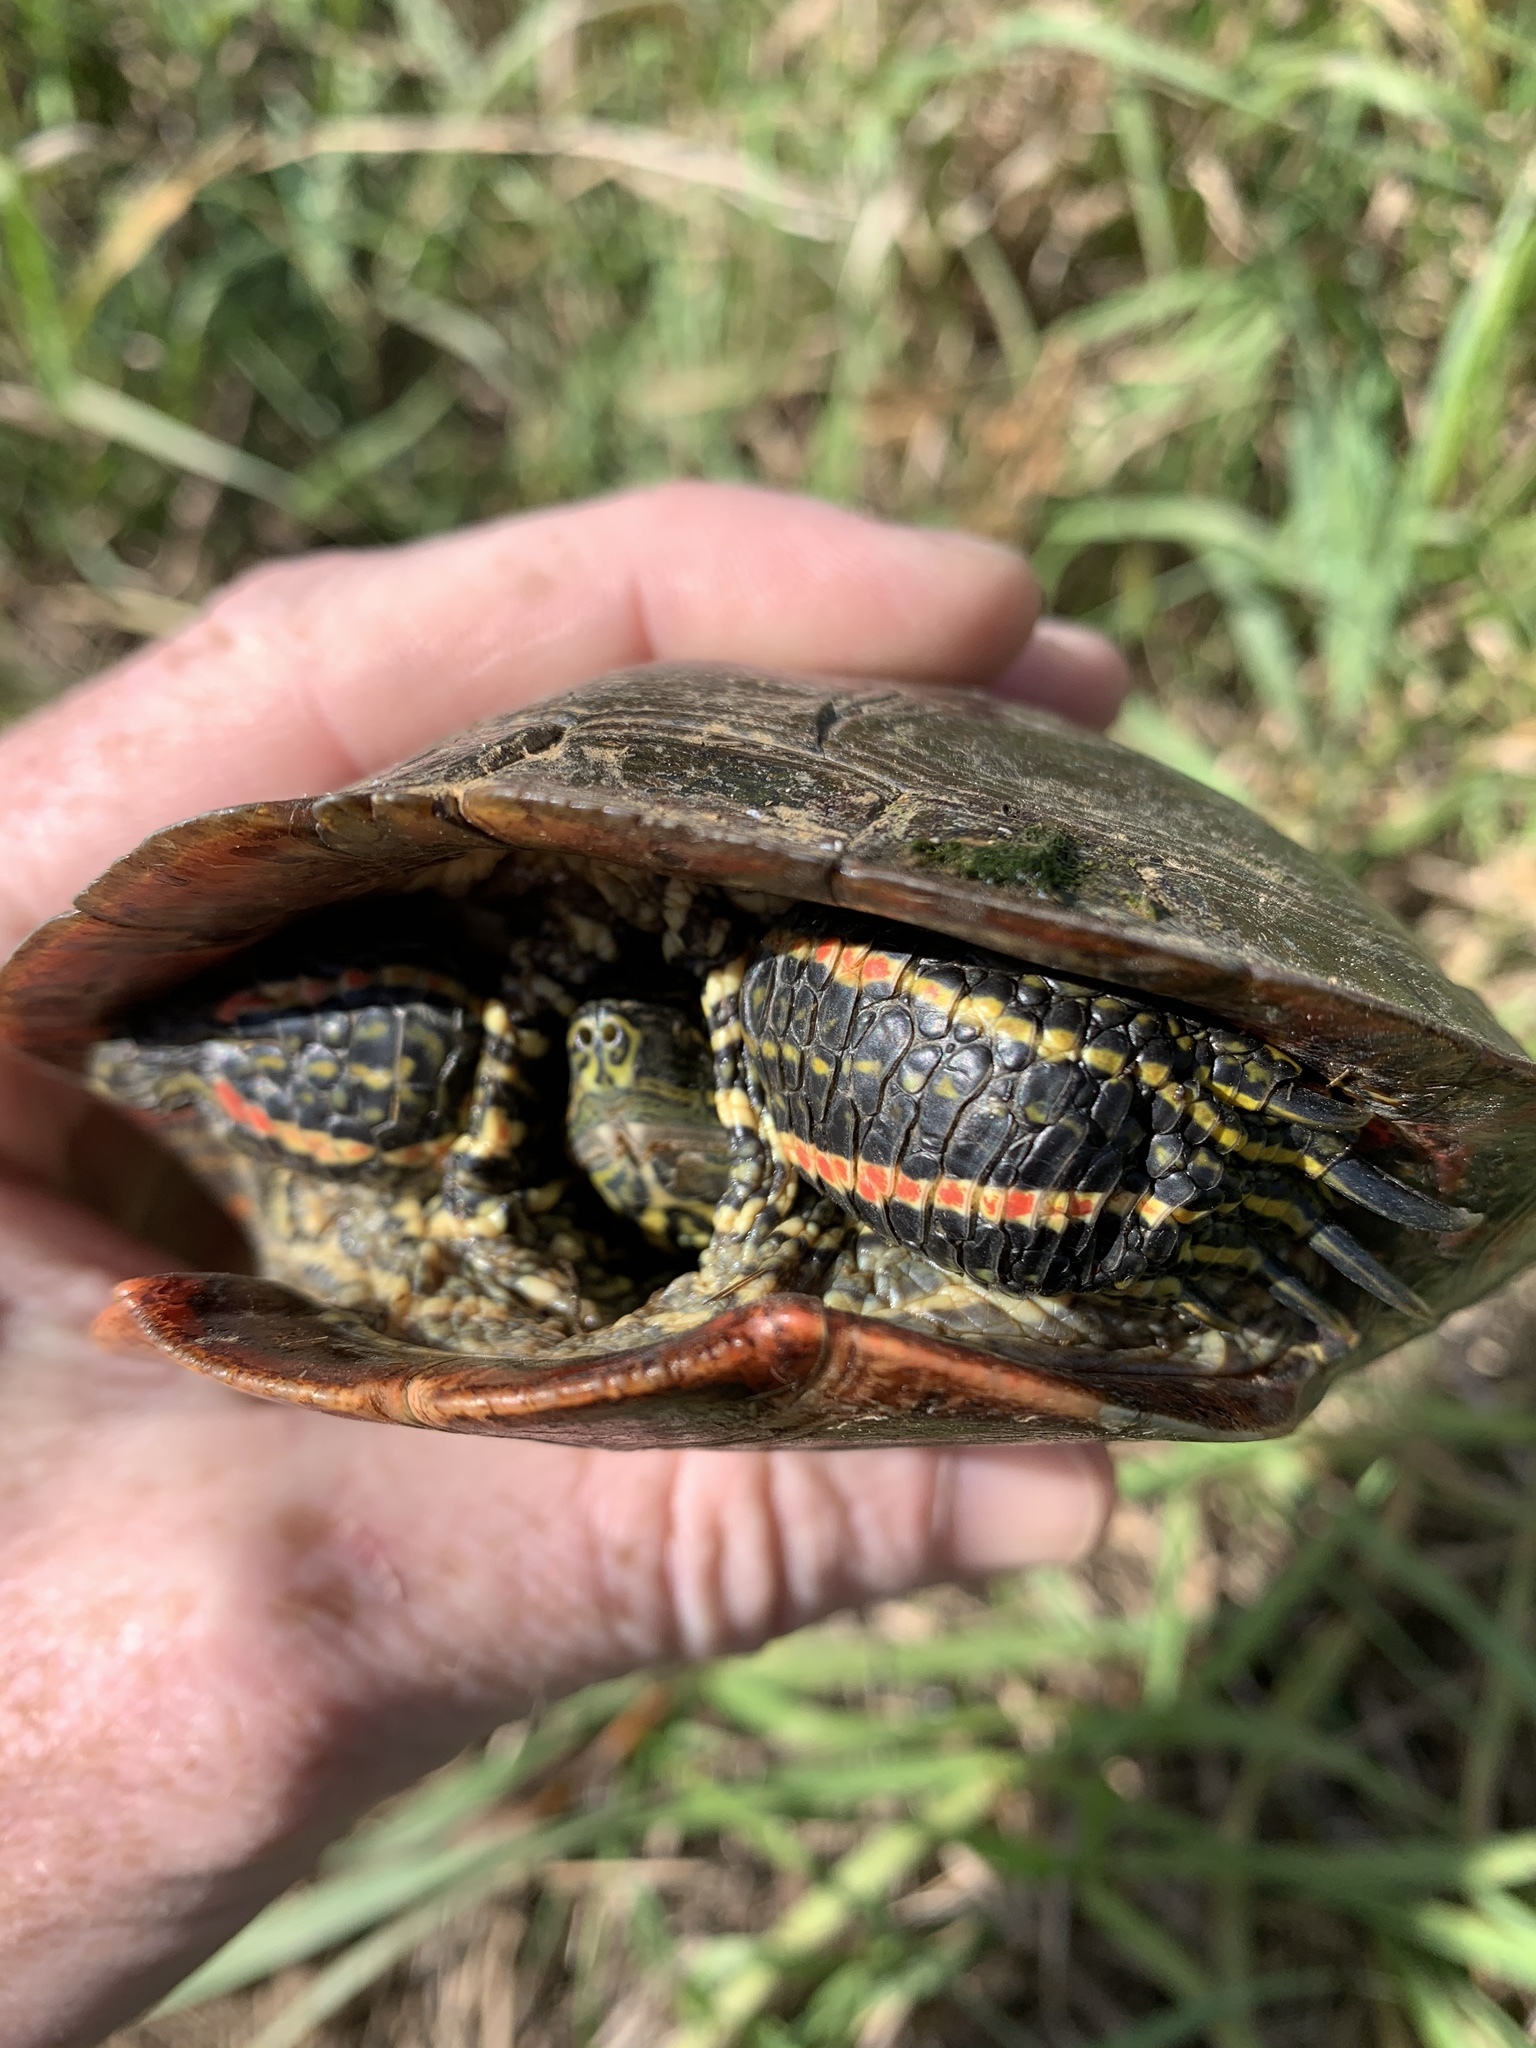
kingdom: Animalia
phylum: Chordata
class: Testudines
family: Emydidae
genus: Chrysemys
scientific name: Chrysemys picta
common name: Painted turtle
